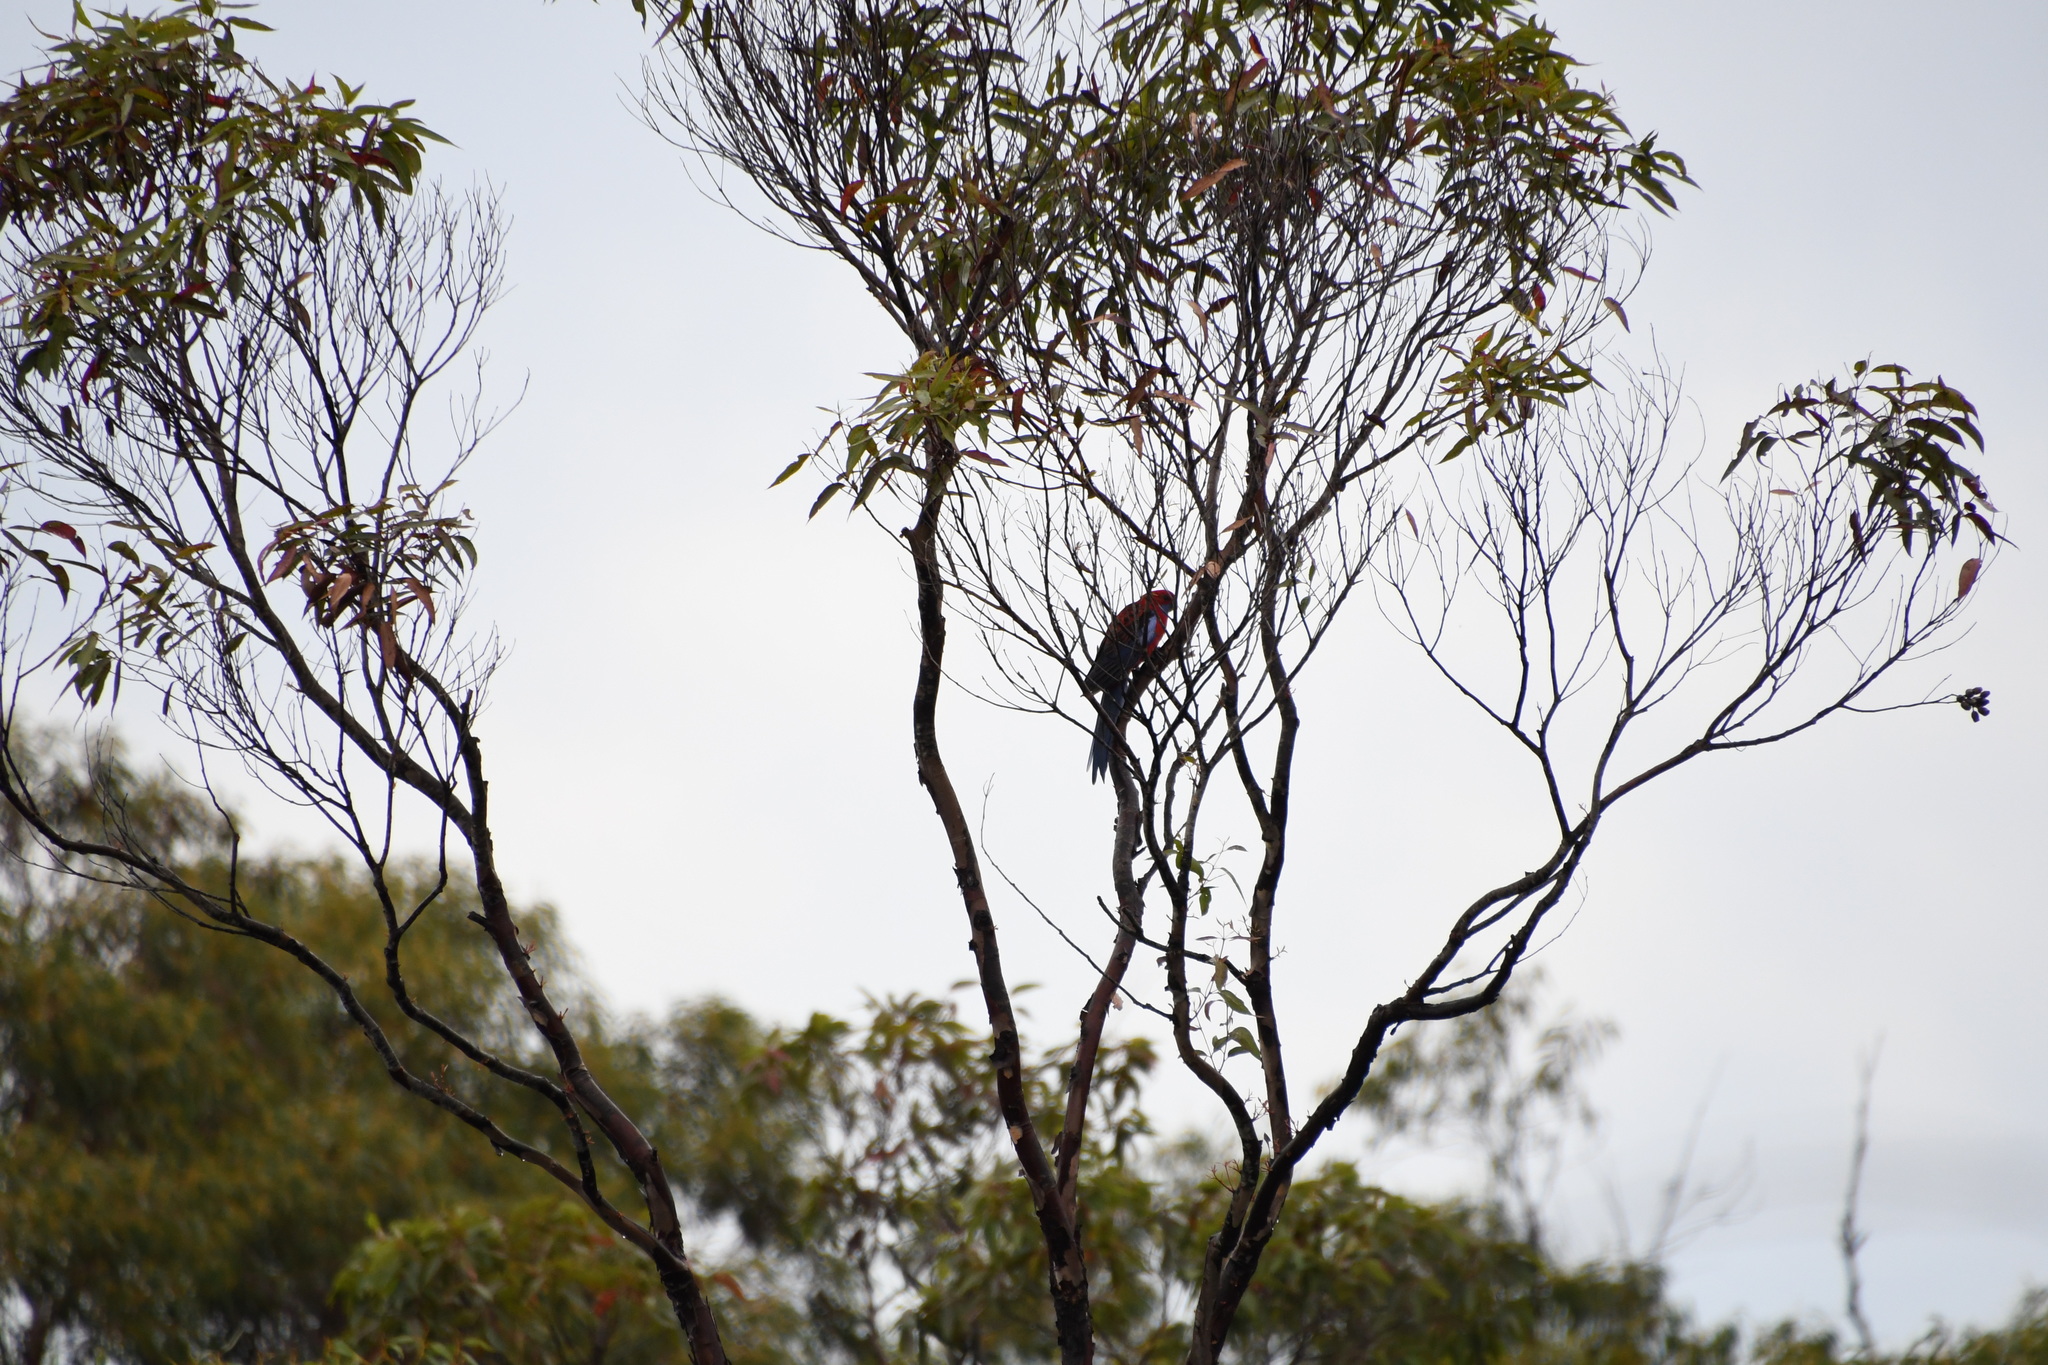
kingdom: Animalia
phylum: Chordata
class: Aves
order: Psittaciformes
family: Psittacidae
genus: Platycercus
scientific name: Platycercus elegans
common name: Crimson rosella
